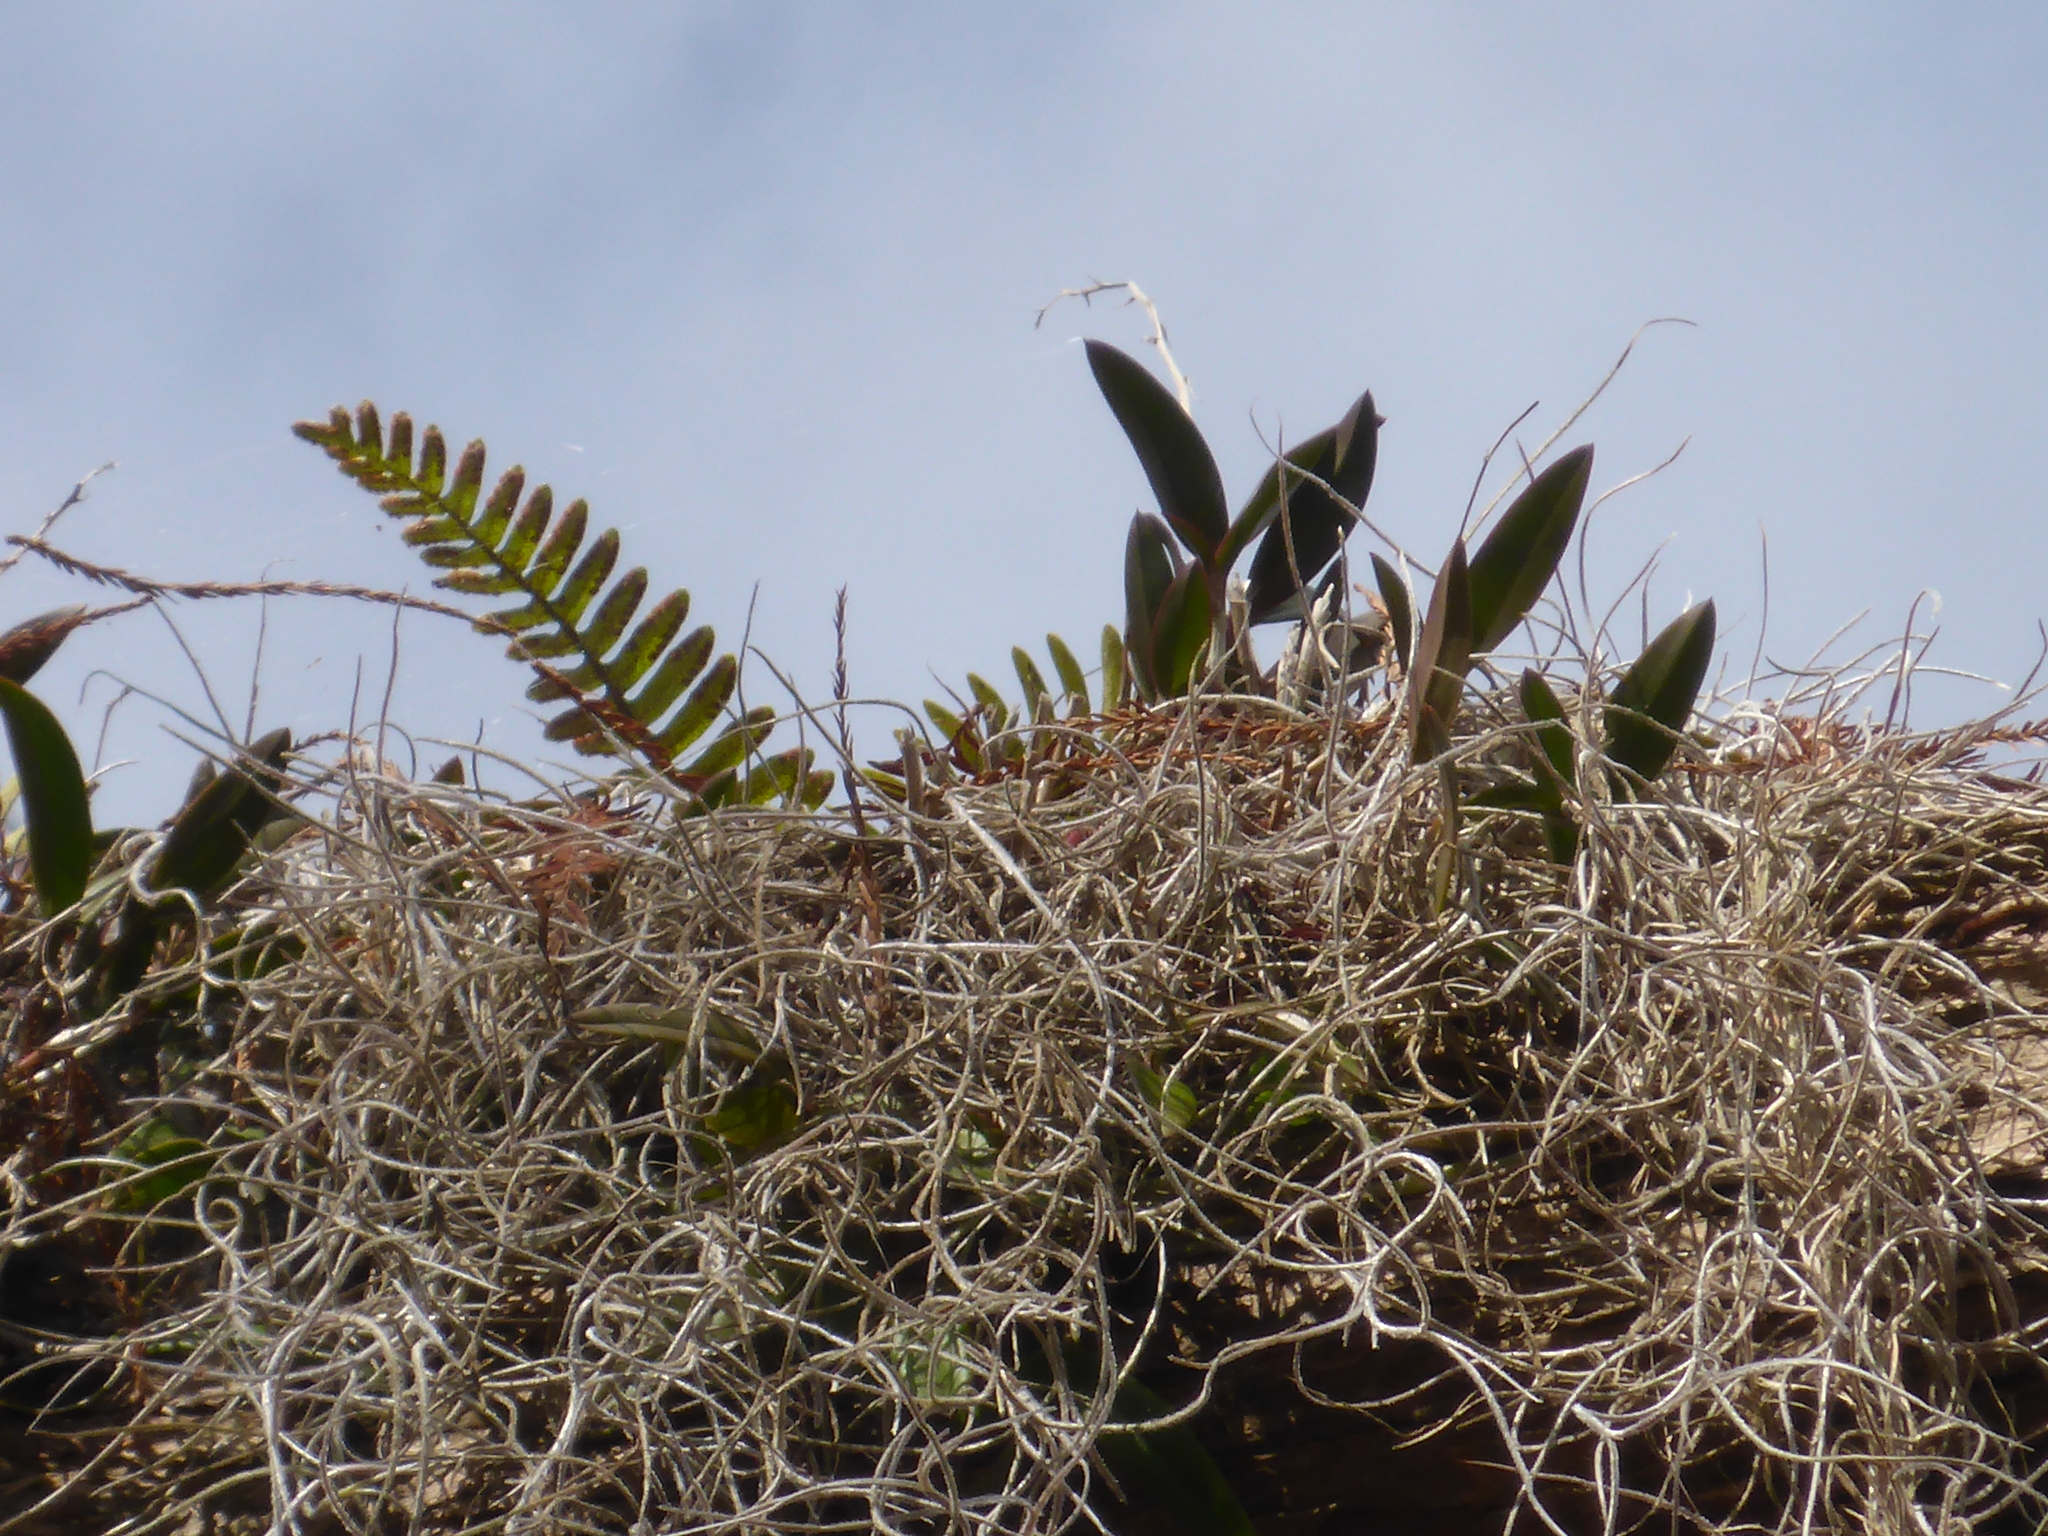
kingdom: Plantae
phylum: Tracheophyta
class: Liliopsida
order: Asparagales
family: Orchidaceae
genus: Epidendrum
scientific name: Epidendrum conopseum
